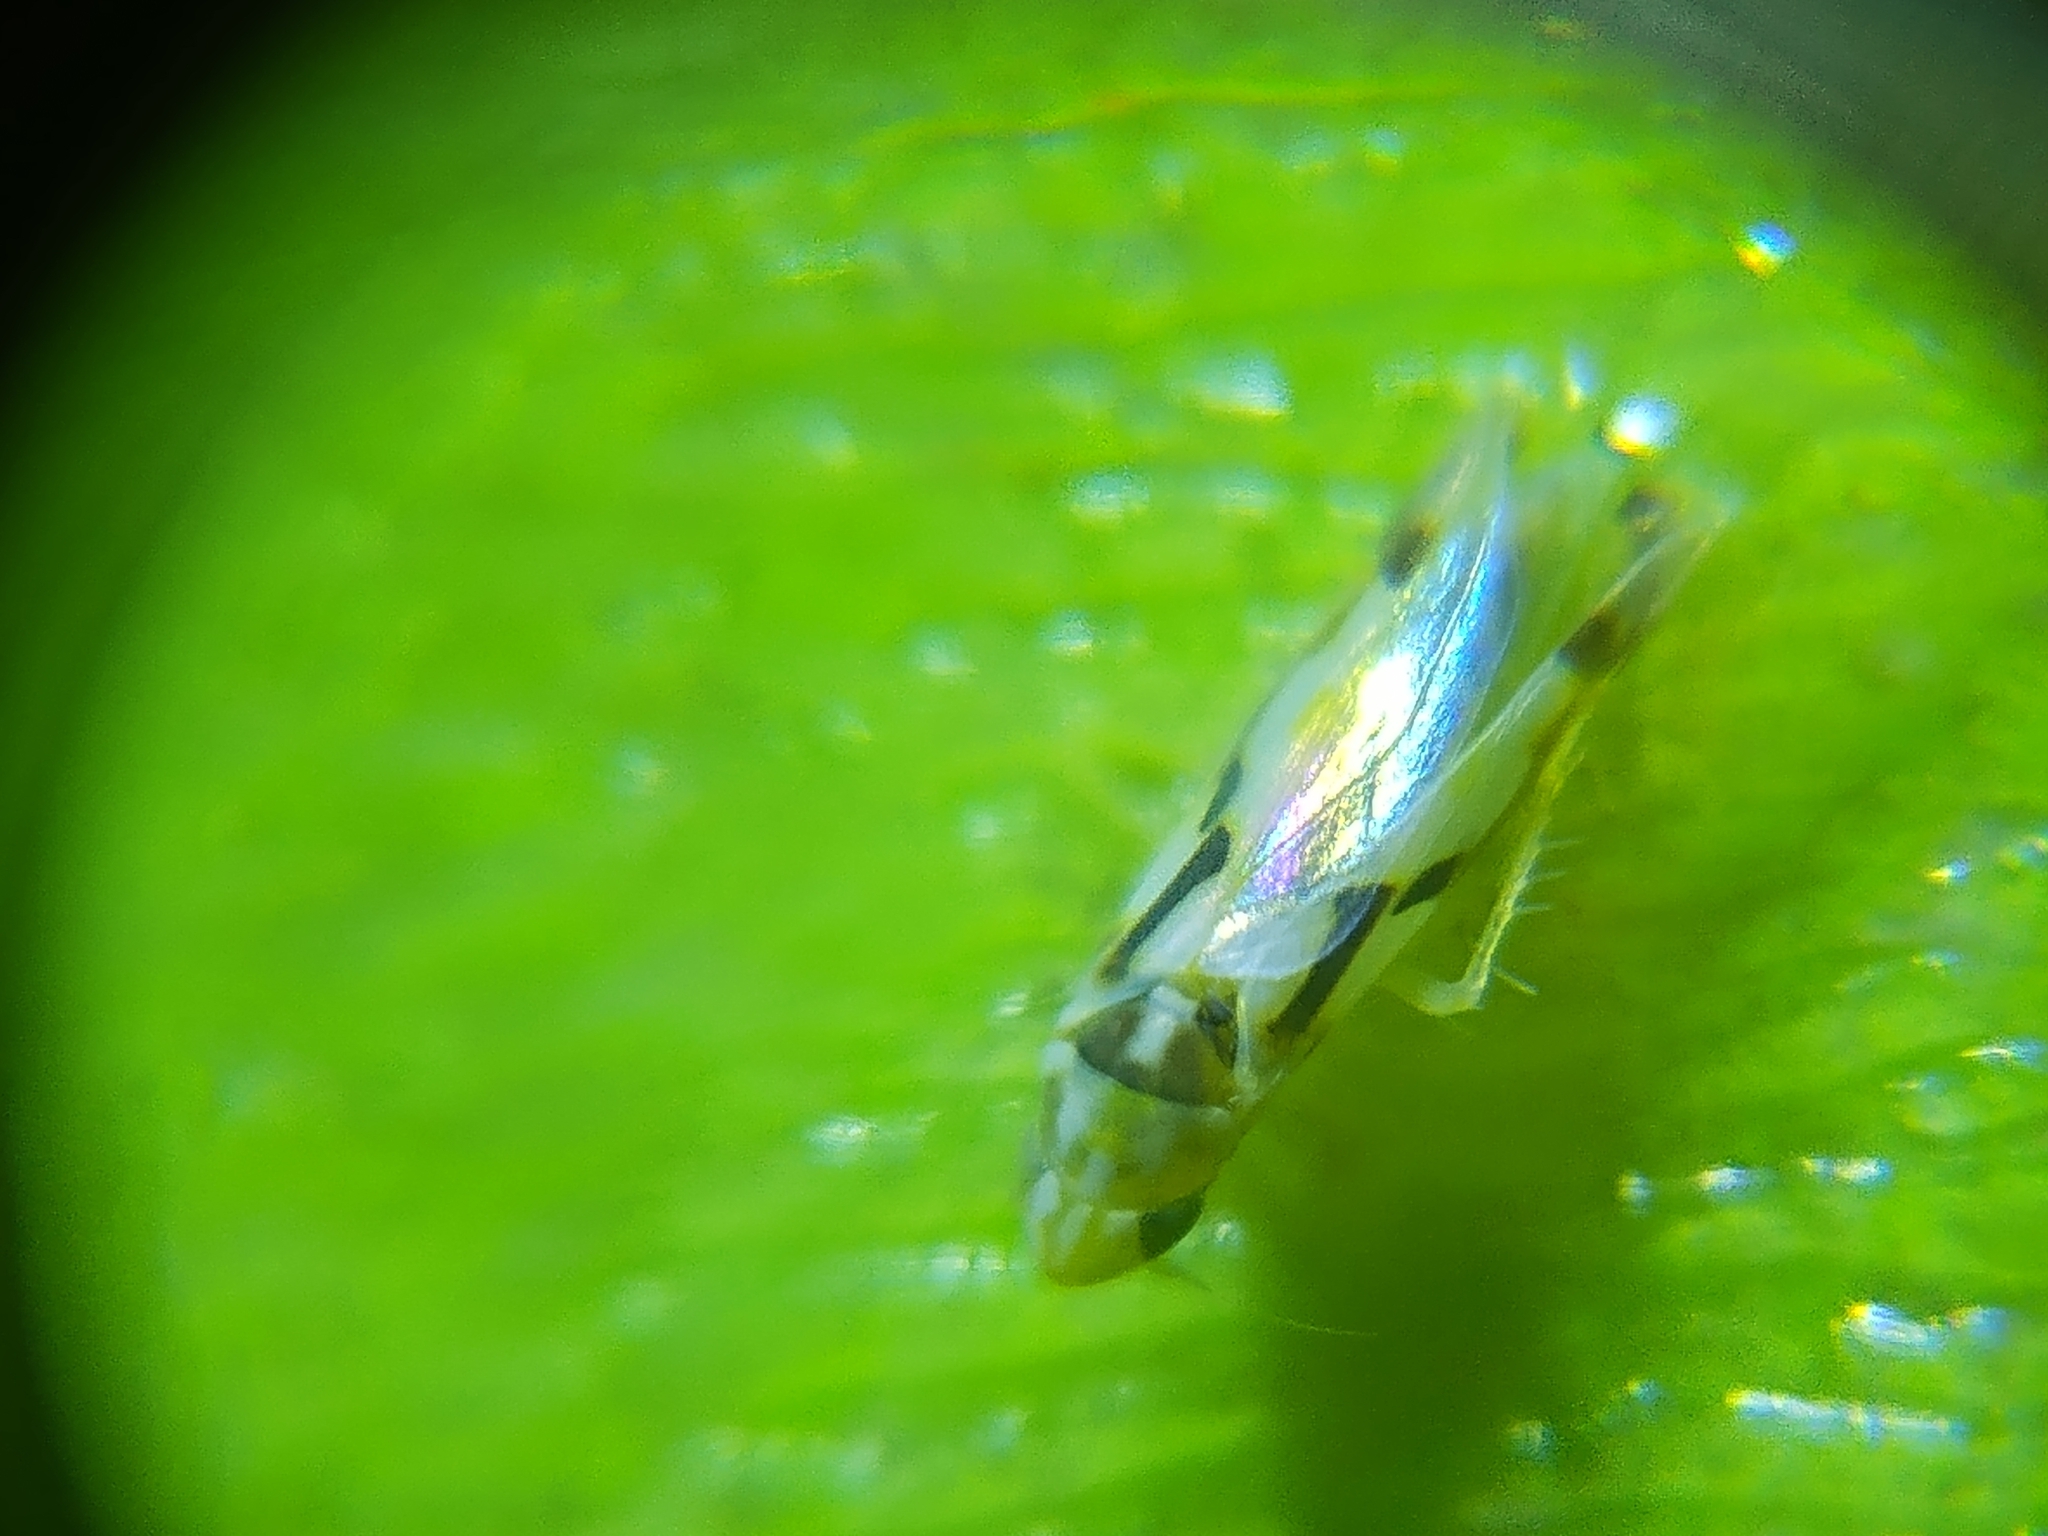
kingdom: Animalia
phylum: Arthropoda
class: Insecta
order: Hemiptera
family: Cicadellidae
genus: Eratoneura
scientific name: Eratoneura ligata
